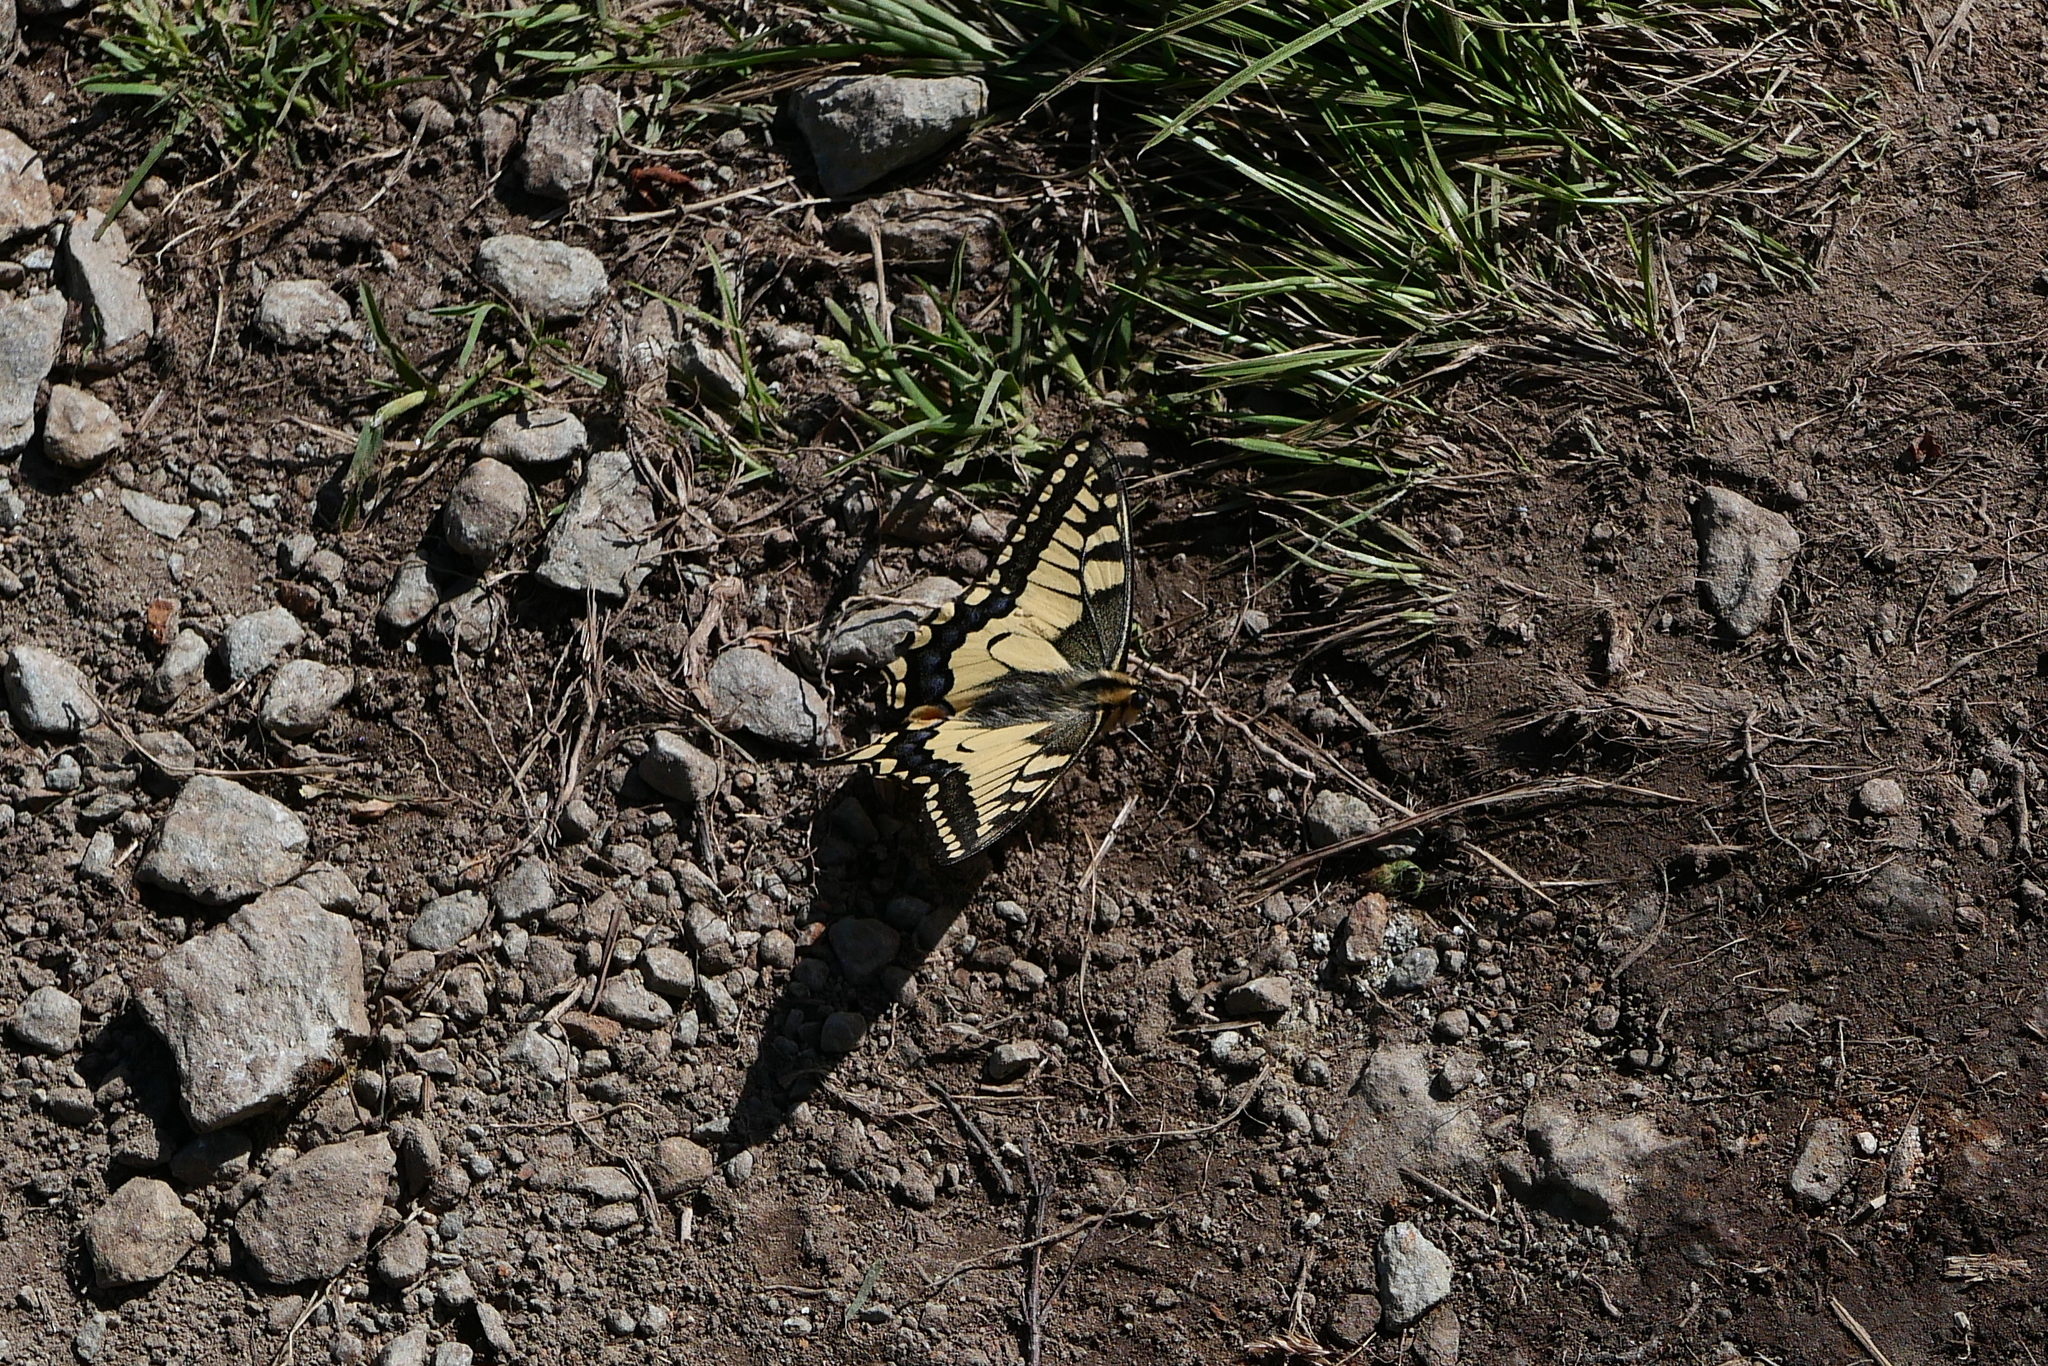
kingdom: Animalia
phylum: Arthropoda
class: Insecta
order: Lepidoptera
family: Papilionidae
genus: Papilio
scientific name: Papilio machaon
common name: Swallowtail
